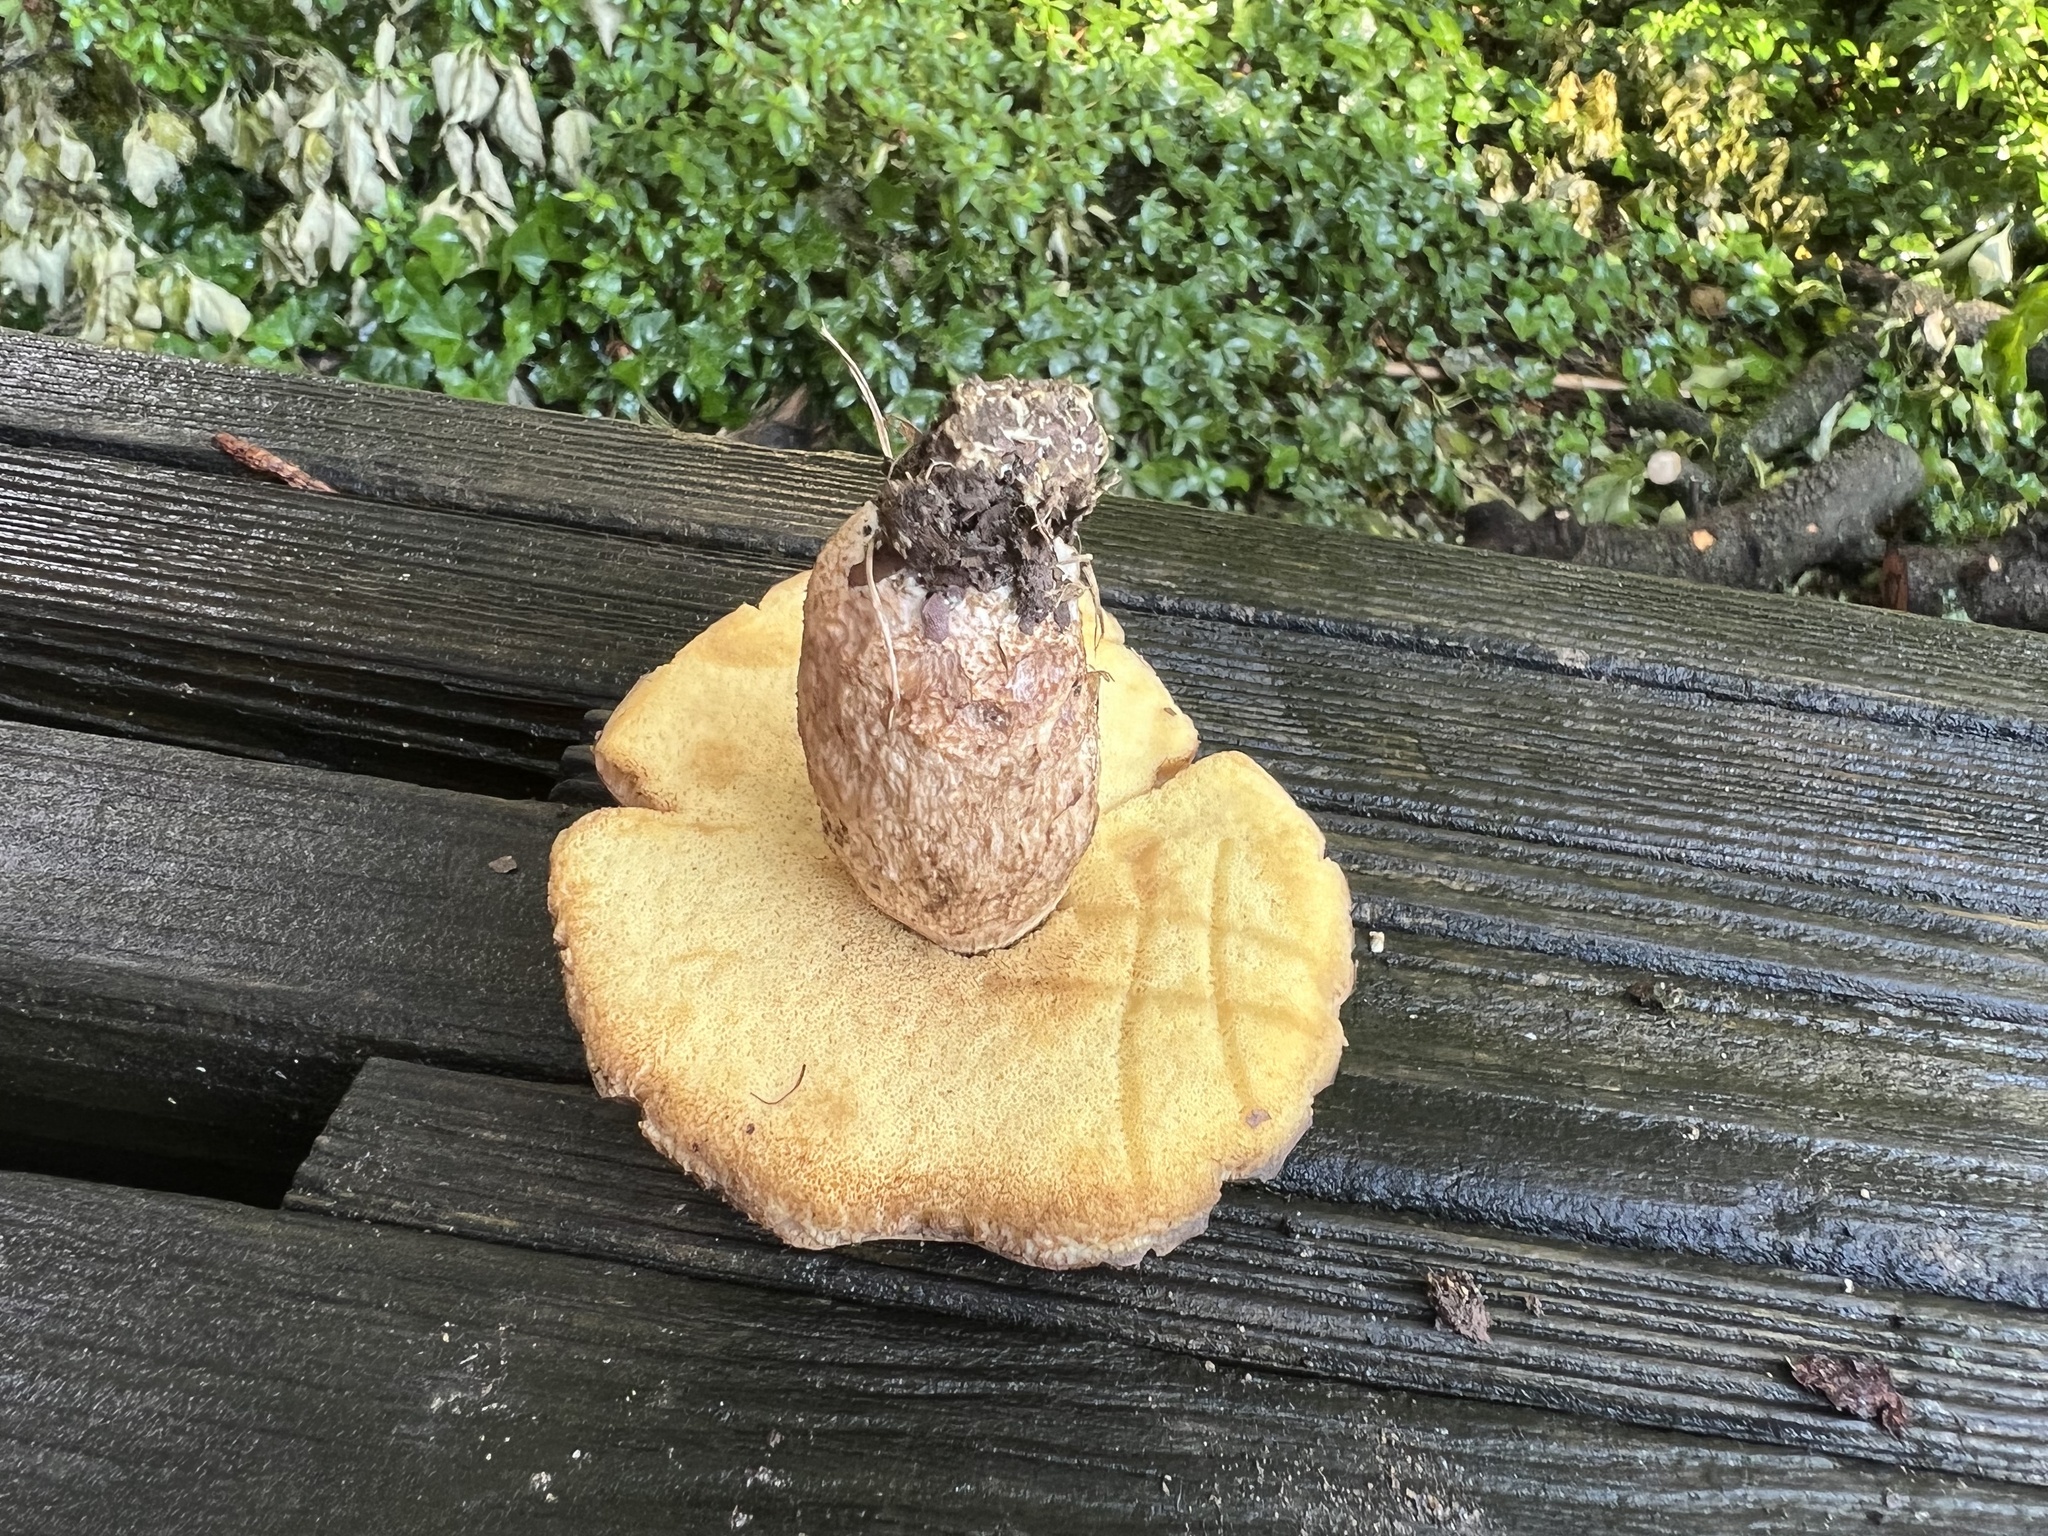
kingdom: Fungi
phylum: Basidiomycota
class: Agaricomycetes
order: Boletales
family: Boletaceae
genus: Leccinellum
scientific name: Leccinellum rugosiceps
